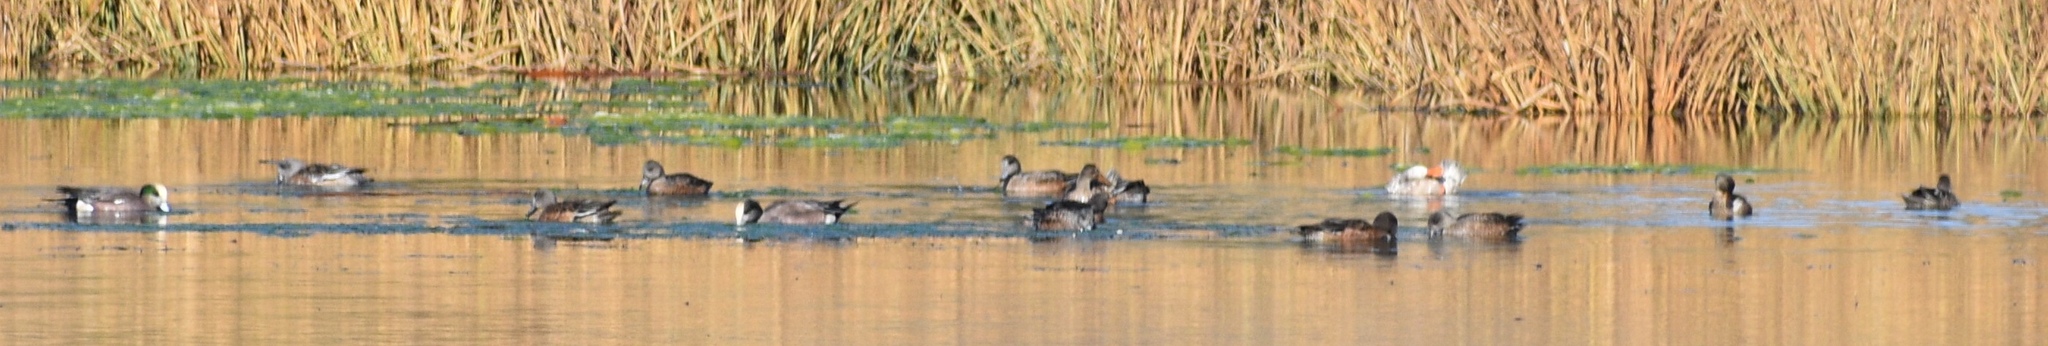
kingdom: Animalia
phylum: Chordata
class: Aves
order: Anseriformes
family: Anatidae
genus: Mareca
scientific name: Mareca americana
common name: American wigeon
